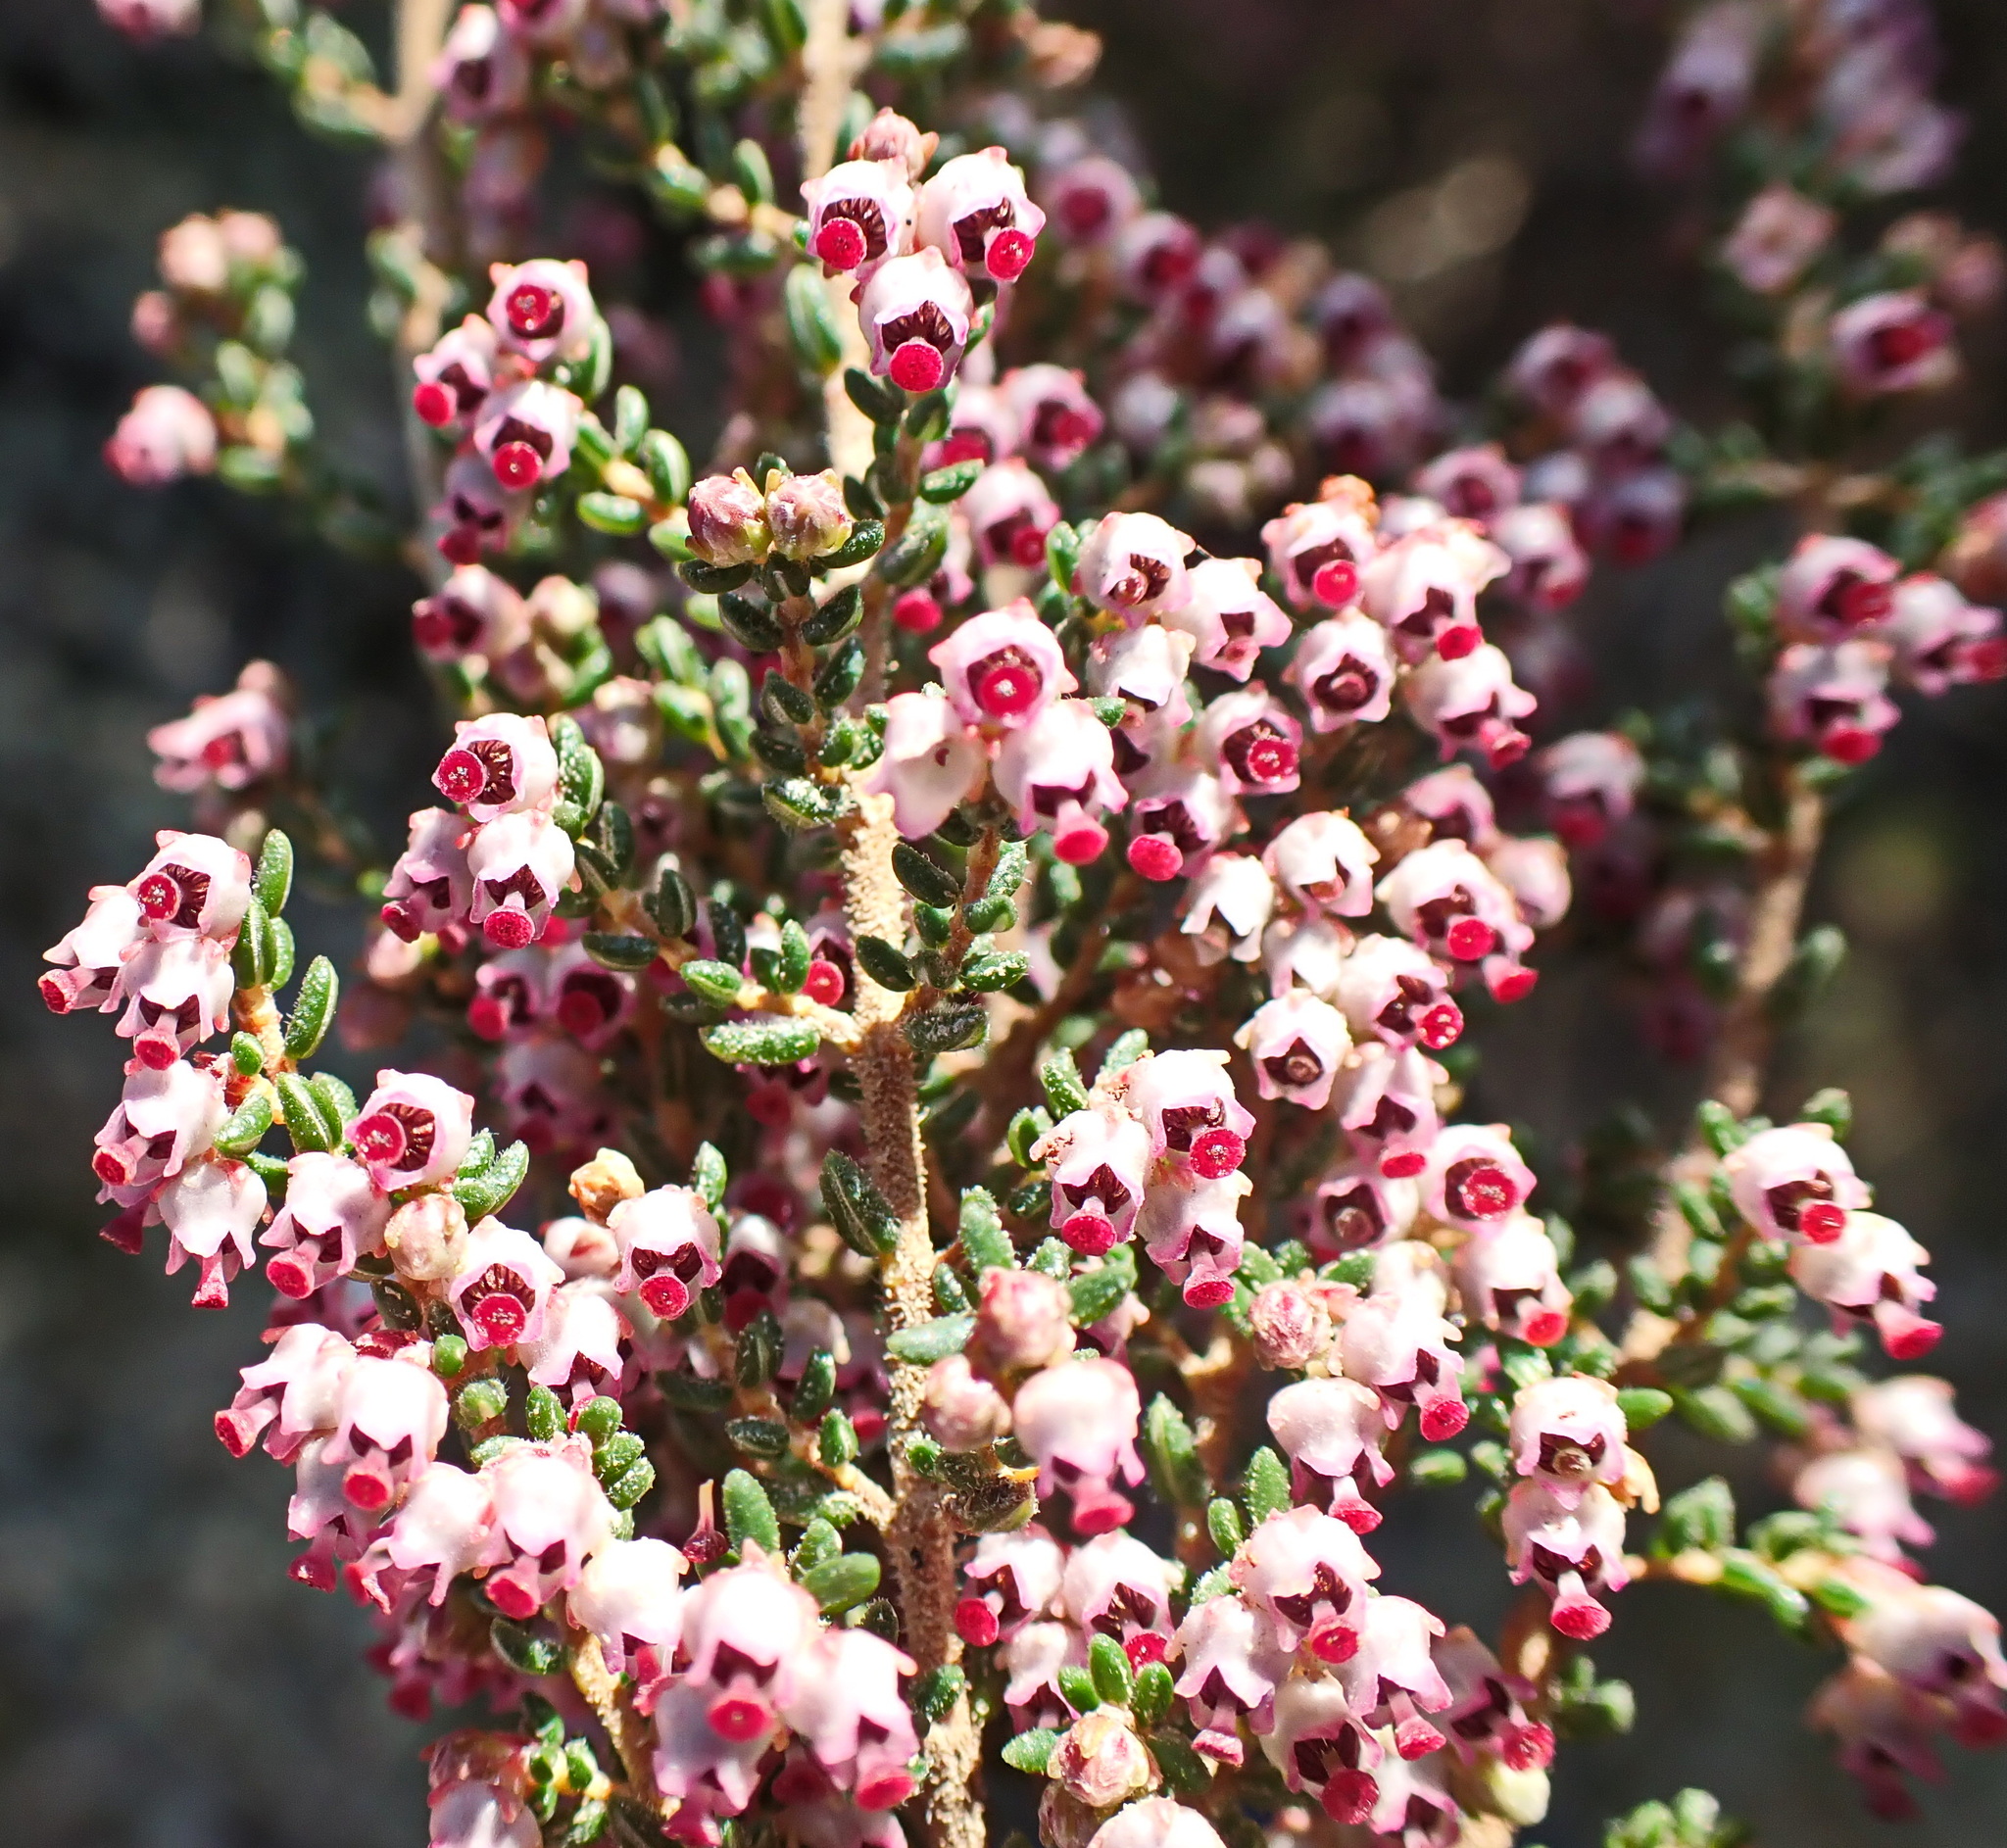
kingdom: Plantae
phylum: Tracheophyta
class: Magnoliopsida
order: Ericales
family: Ericaceae
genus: Erica
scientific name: Erica hispidula
